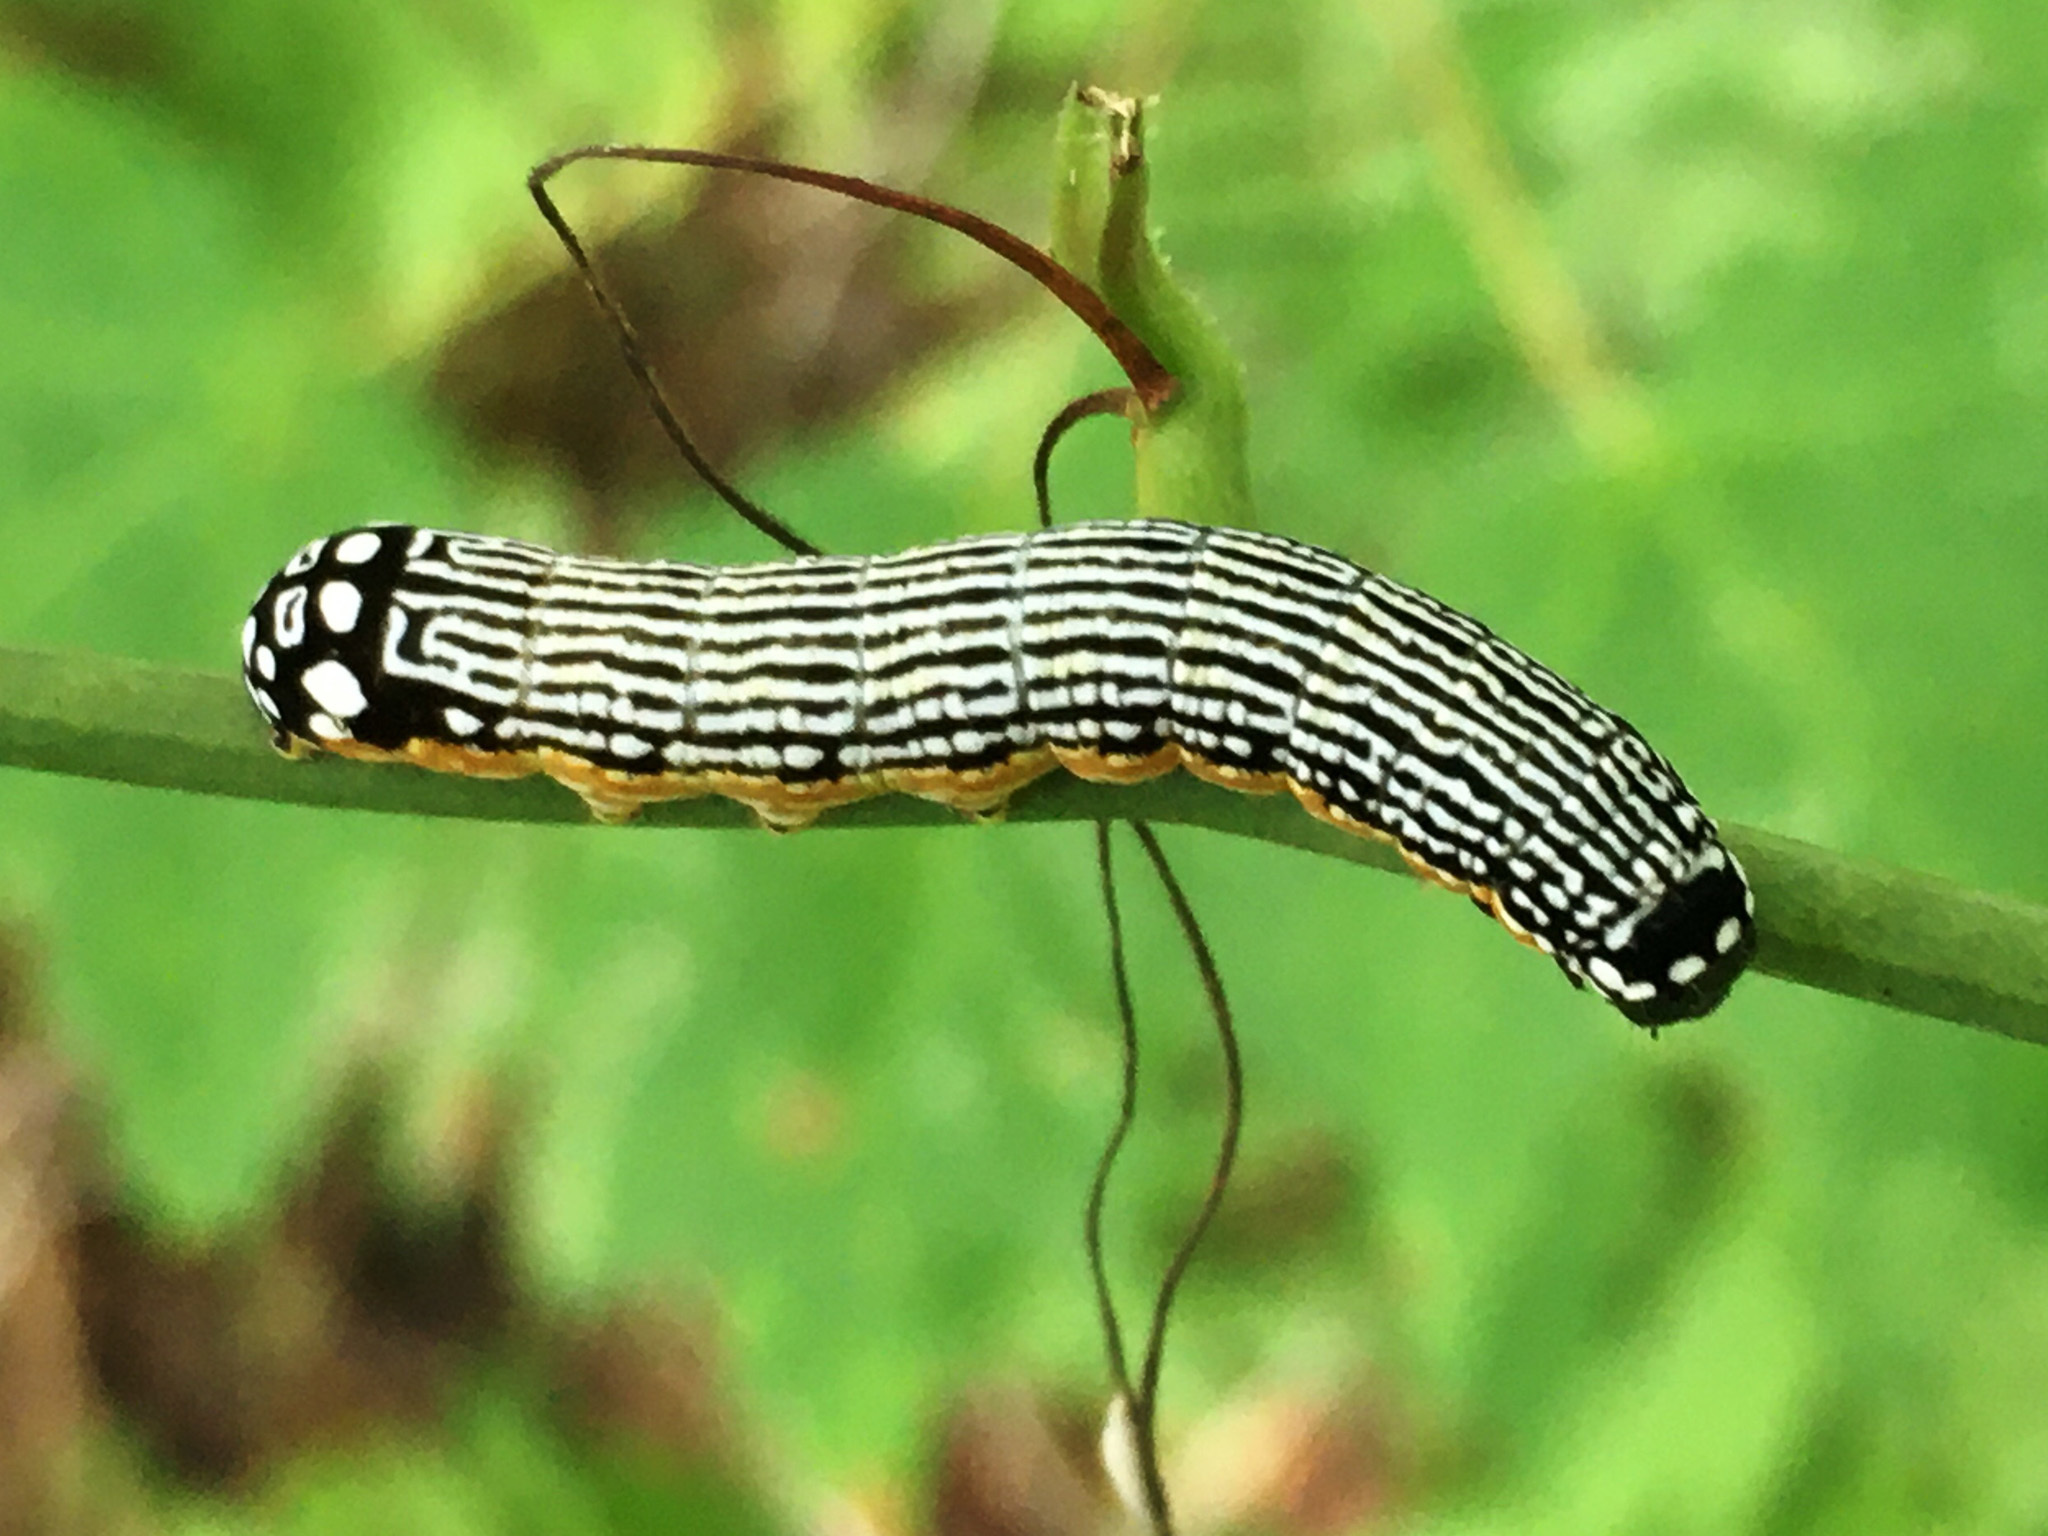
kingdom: Animalia
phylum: Arthropoda
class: Insecta
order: Lepidoptera
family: Noctuidae
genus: Phosphila
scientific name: Phosphila turbulenta
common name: Turbulent phosphila moth
